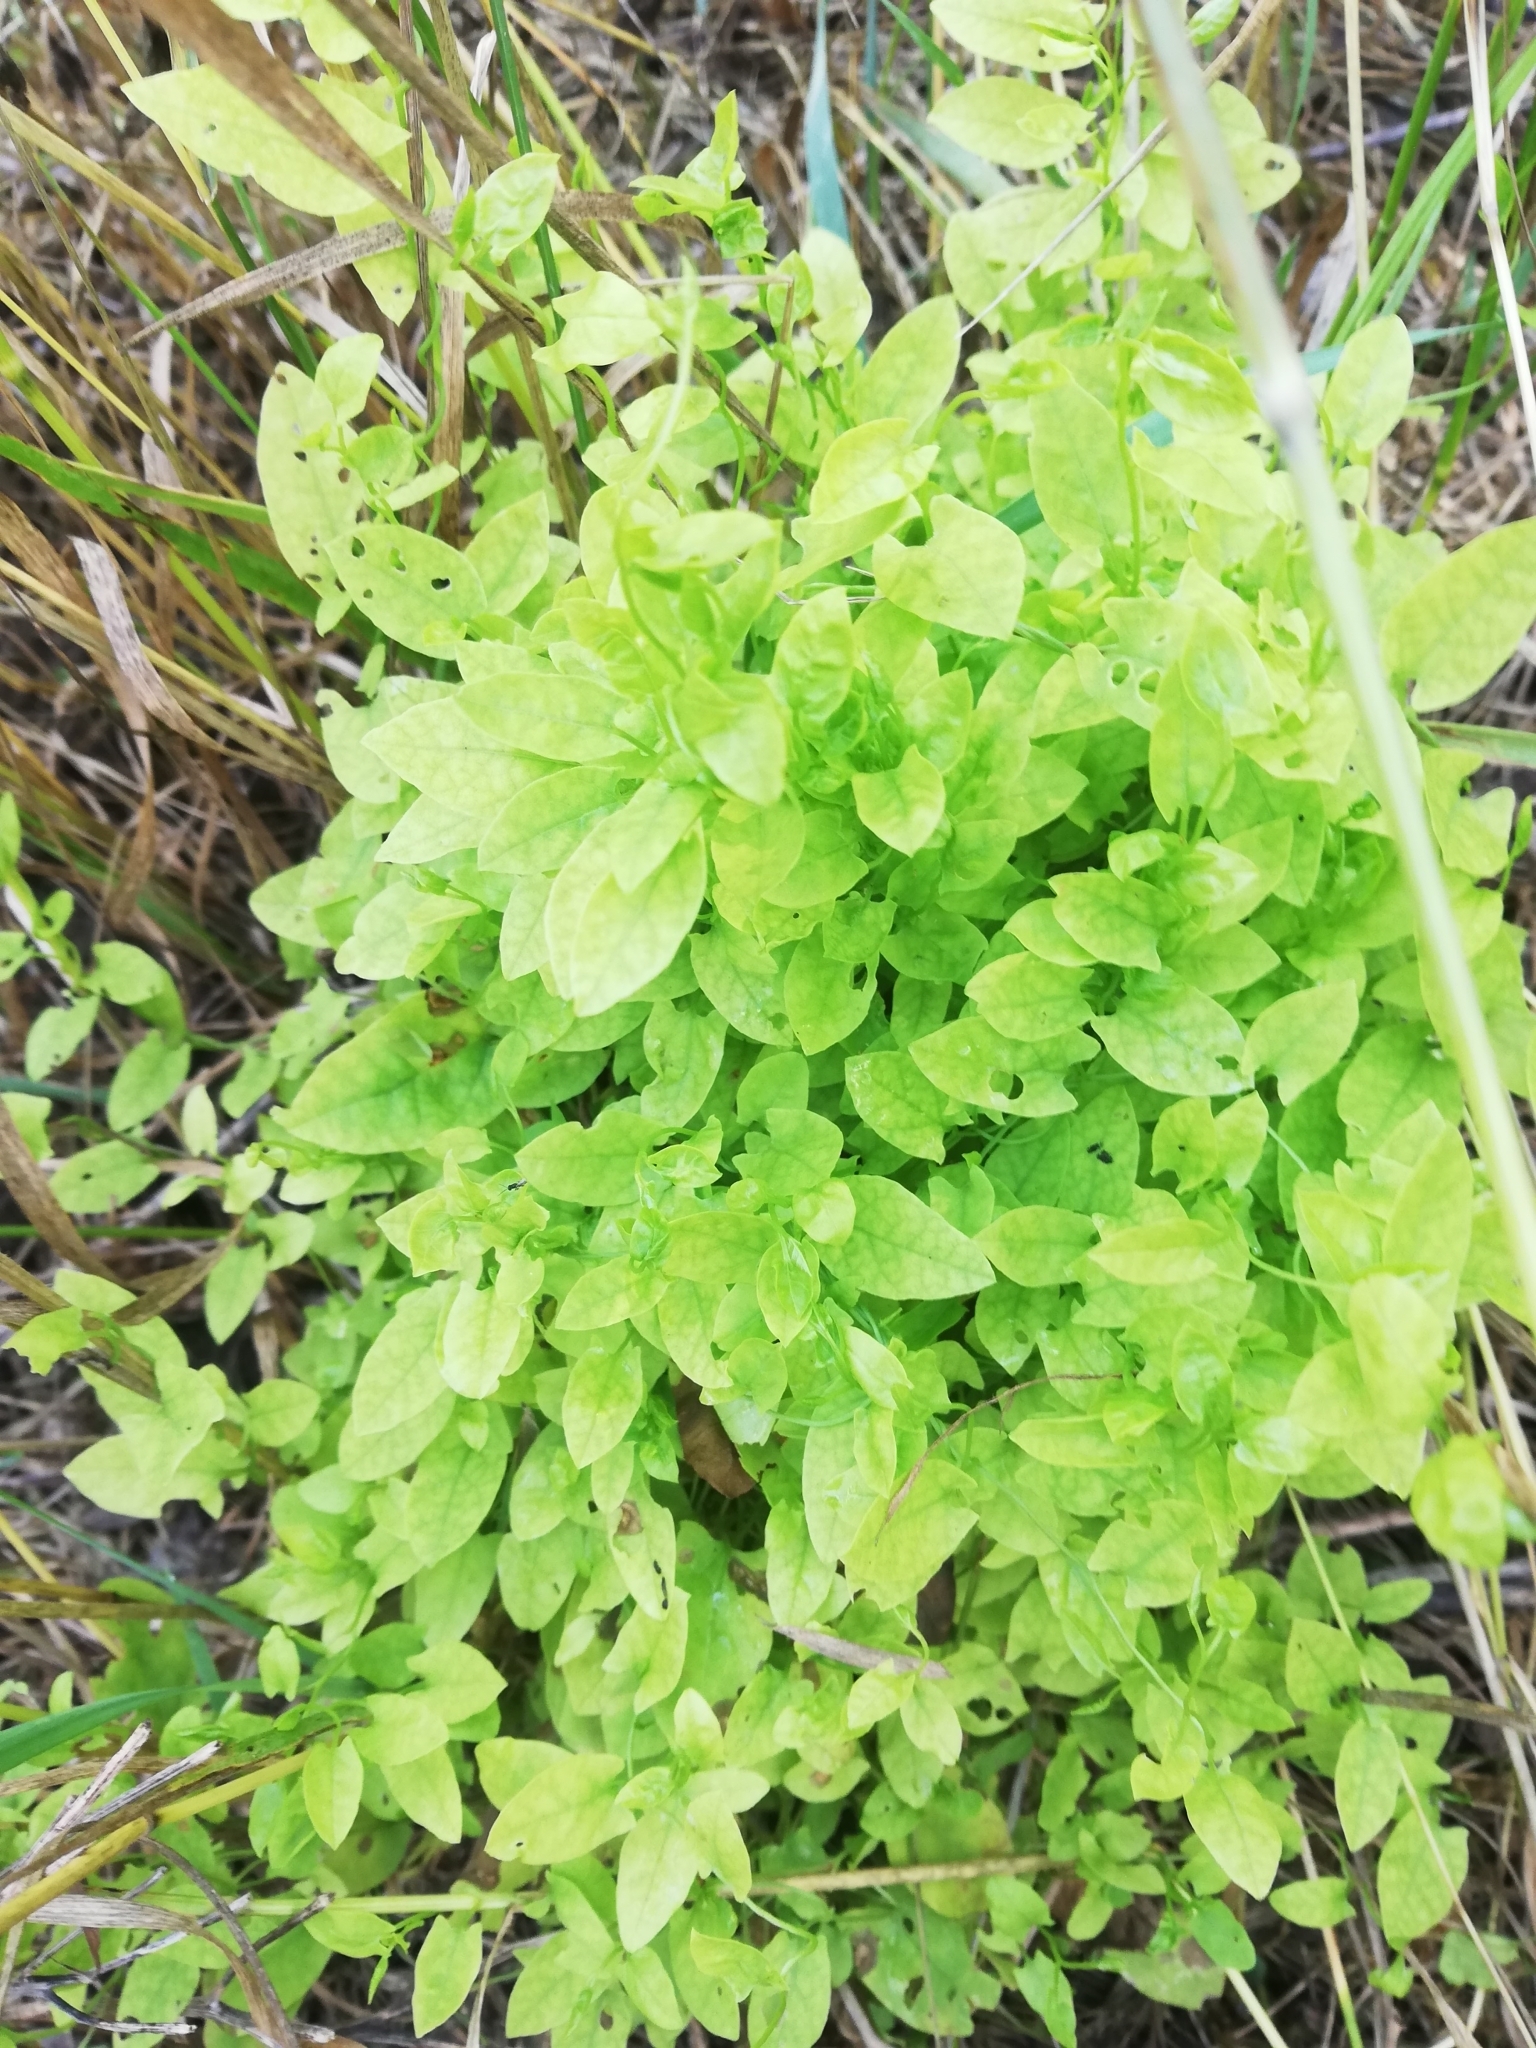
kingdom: Plantae
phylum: Tracheophyta
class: Magnoliopsida
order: Solanales
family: Convolvulaceae
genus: Convolvulus
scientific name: Convolvulus arvensis
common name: Field bindweed
